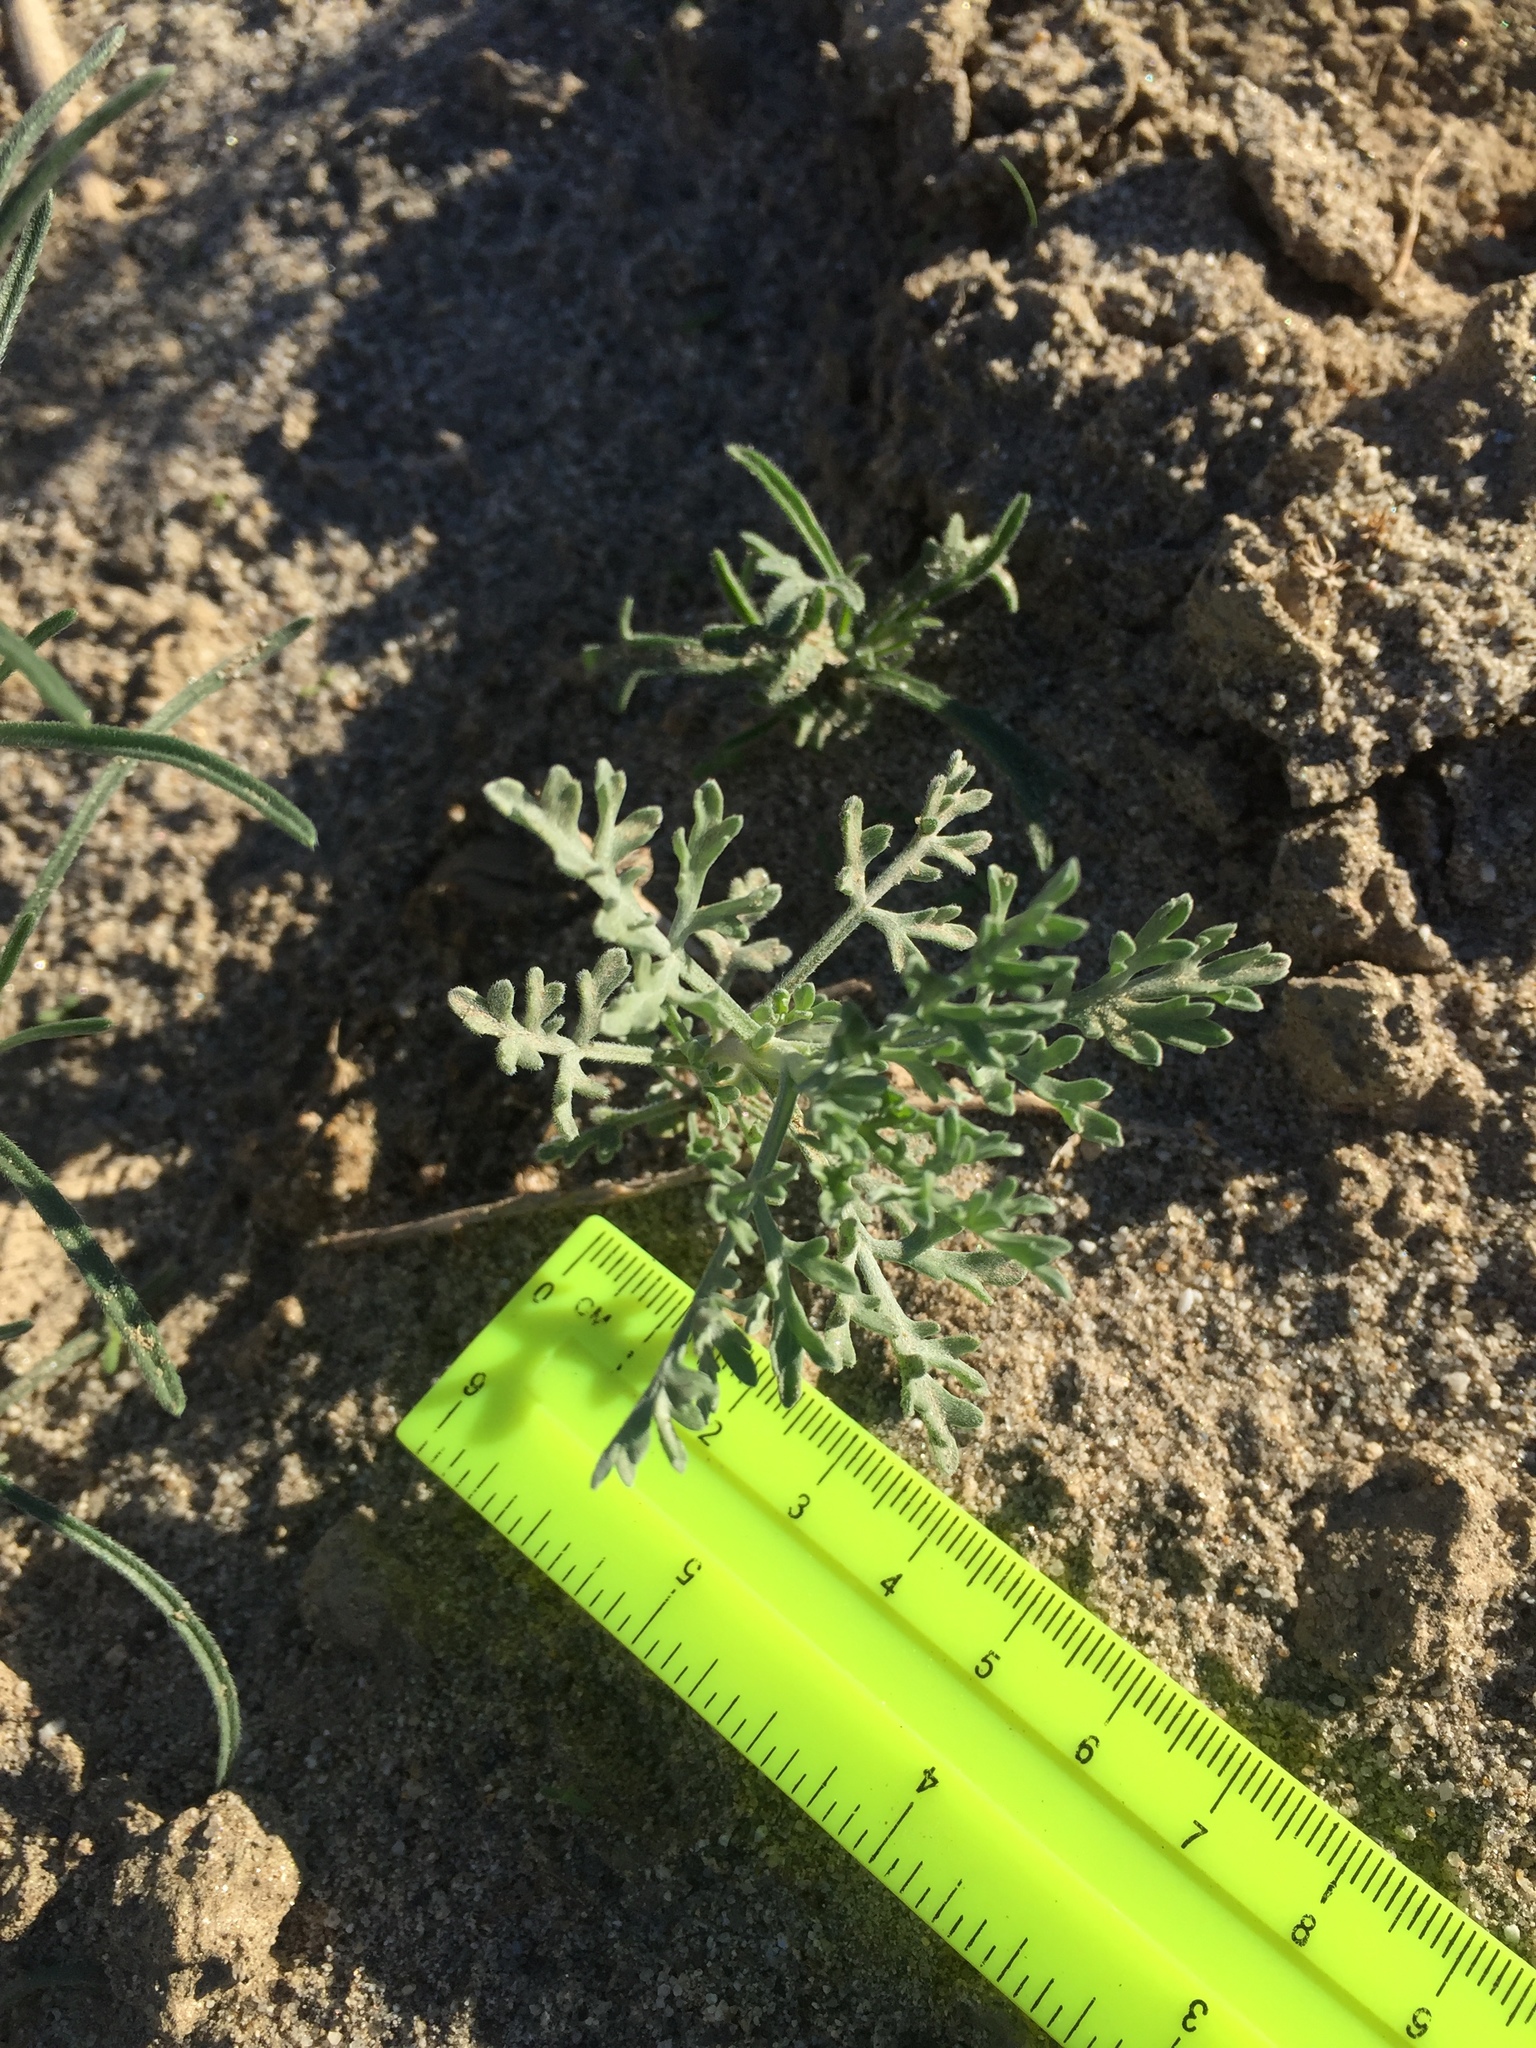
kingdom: Plantae
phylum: Tracheophyta
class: Magnoliopsida
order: Asterales
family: Asteraceae
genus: Ambrosia
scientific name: Ambrosia dumosa
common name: Bur-sage
